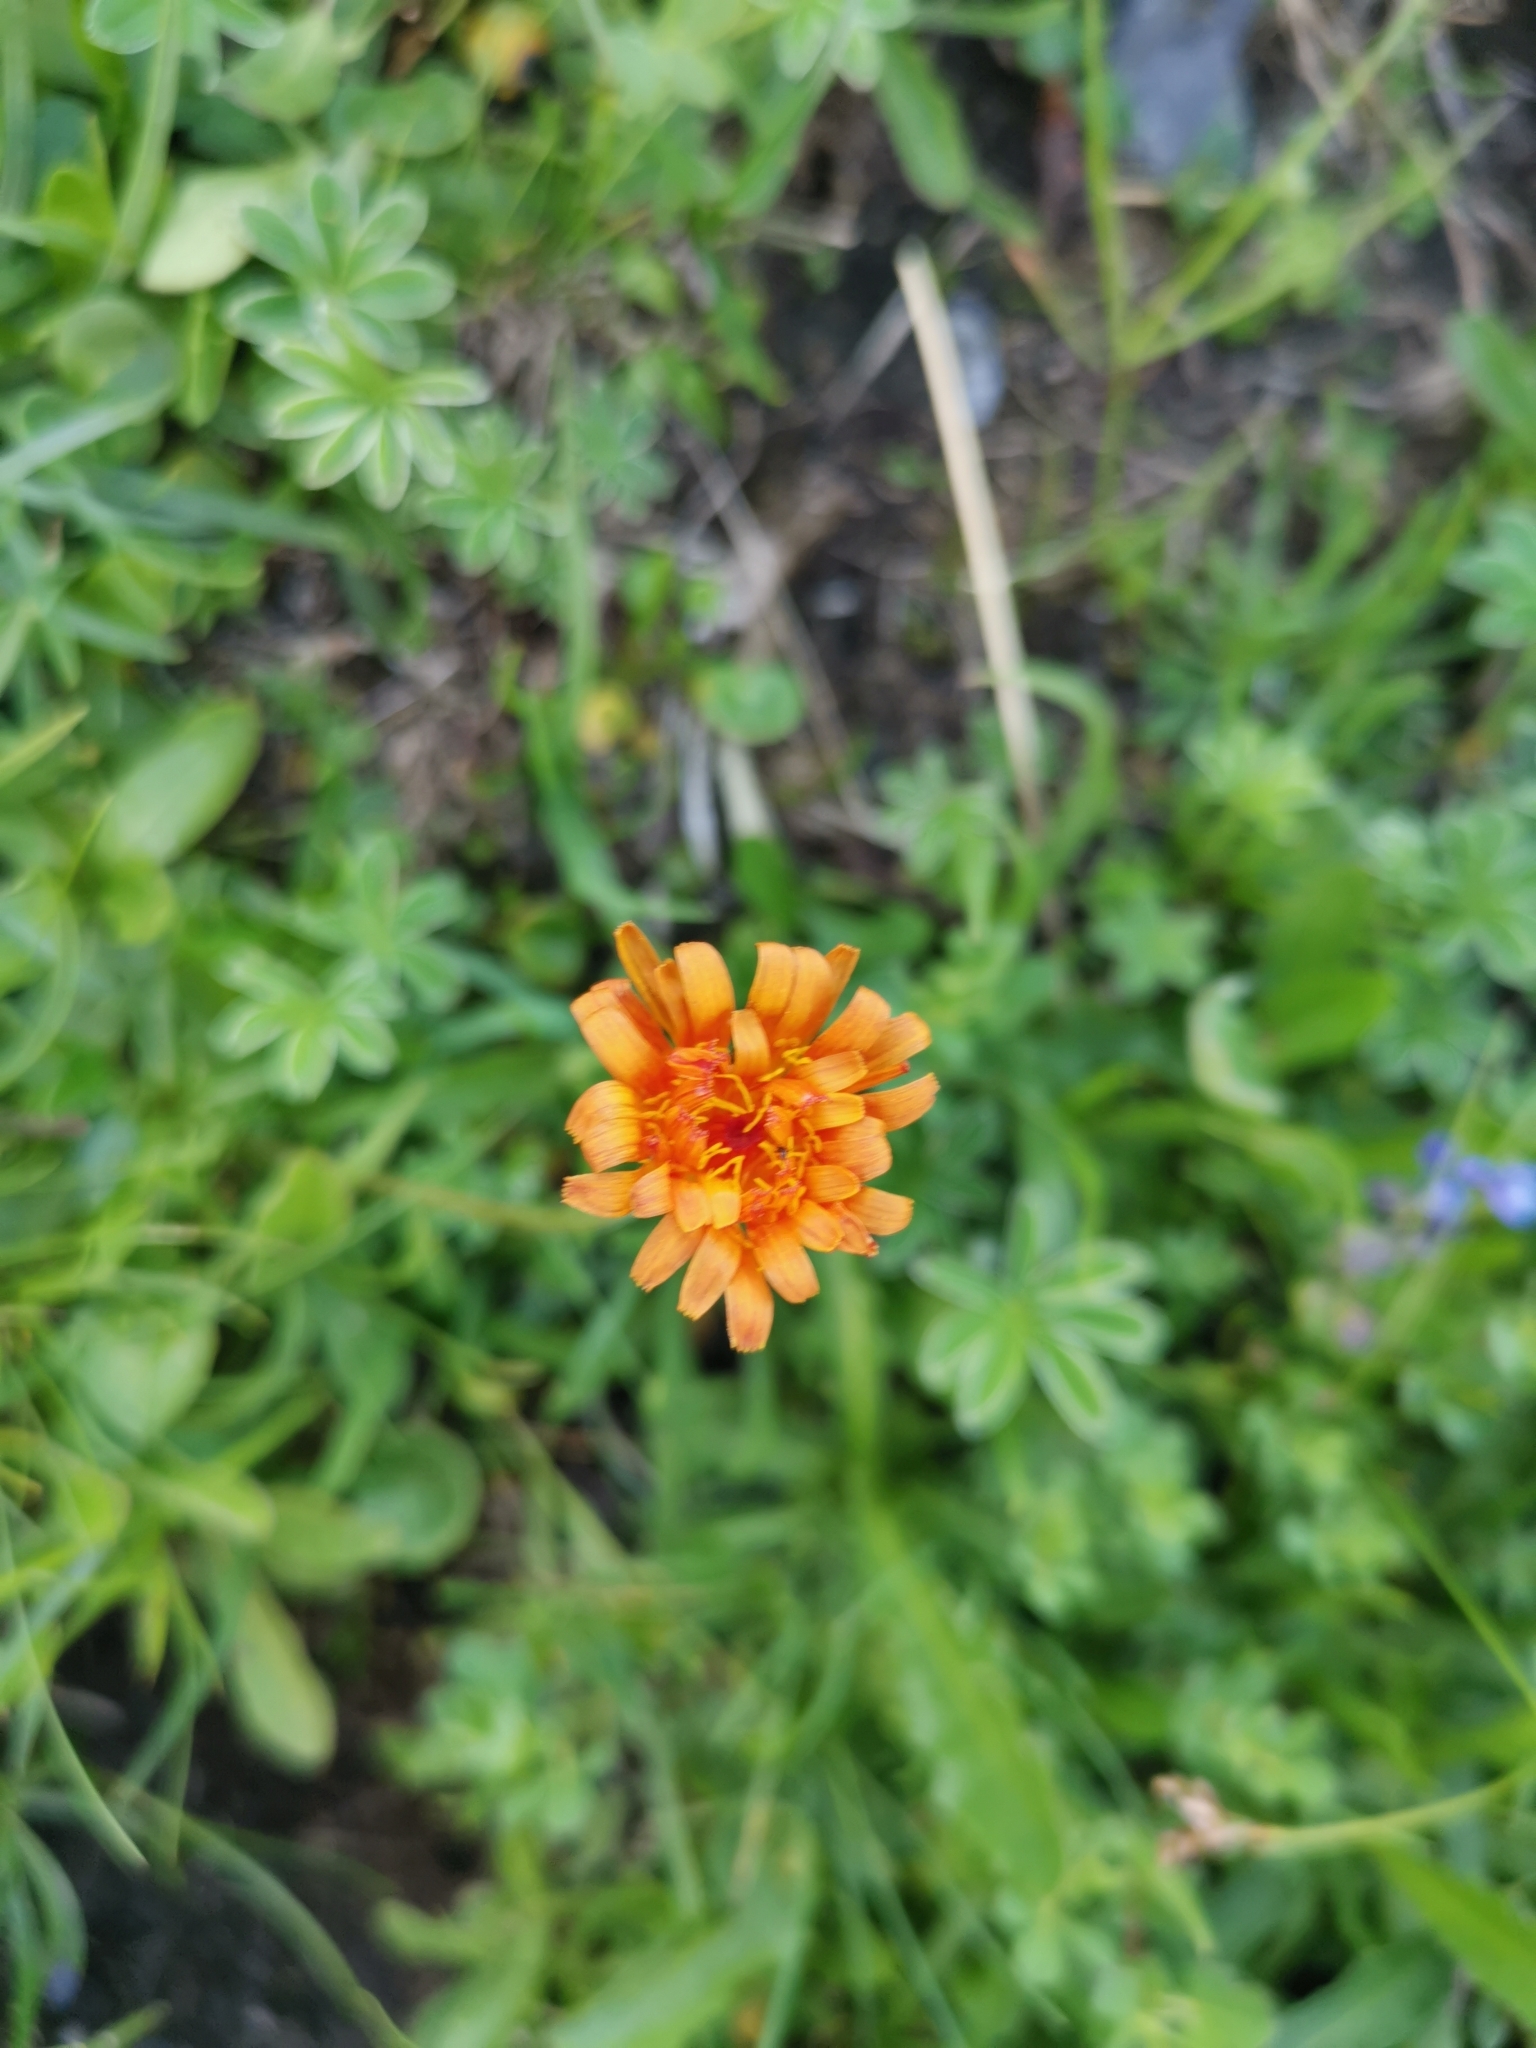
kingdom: Plantae
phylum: Tracheophyta
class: Magnoliopsida
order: Asterales
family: Asteraceae
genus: Pilosella
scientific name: Pilosella aurantiaca
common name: Fox-and-cubs
